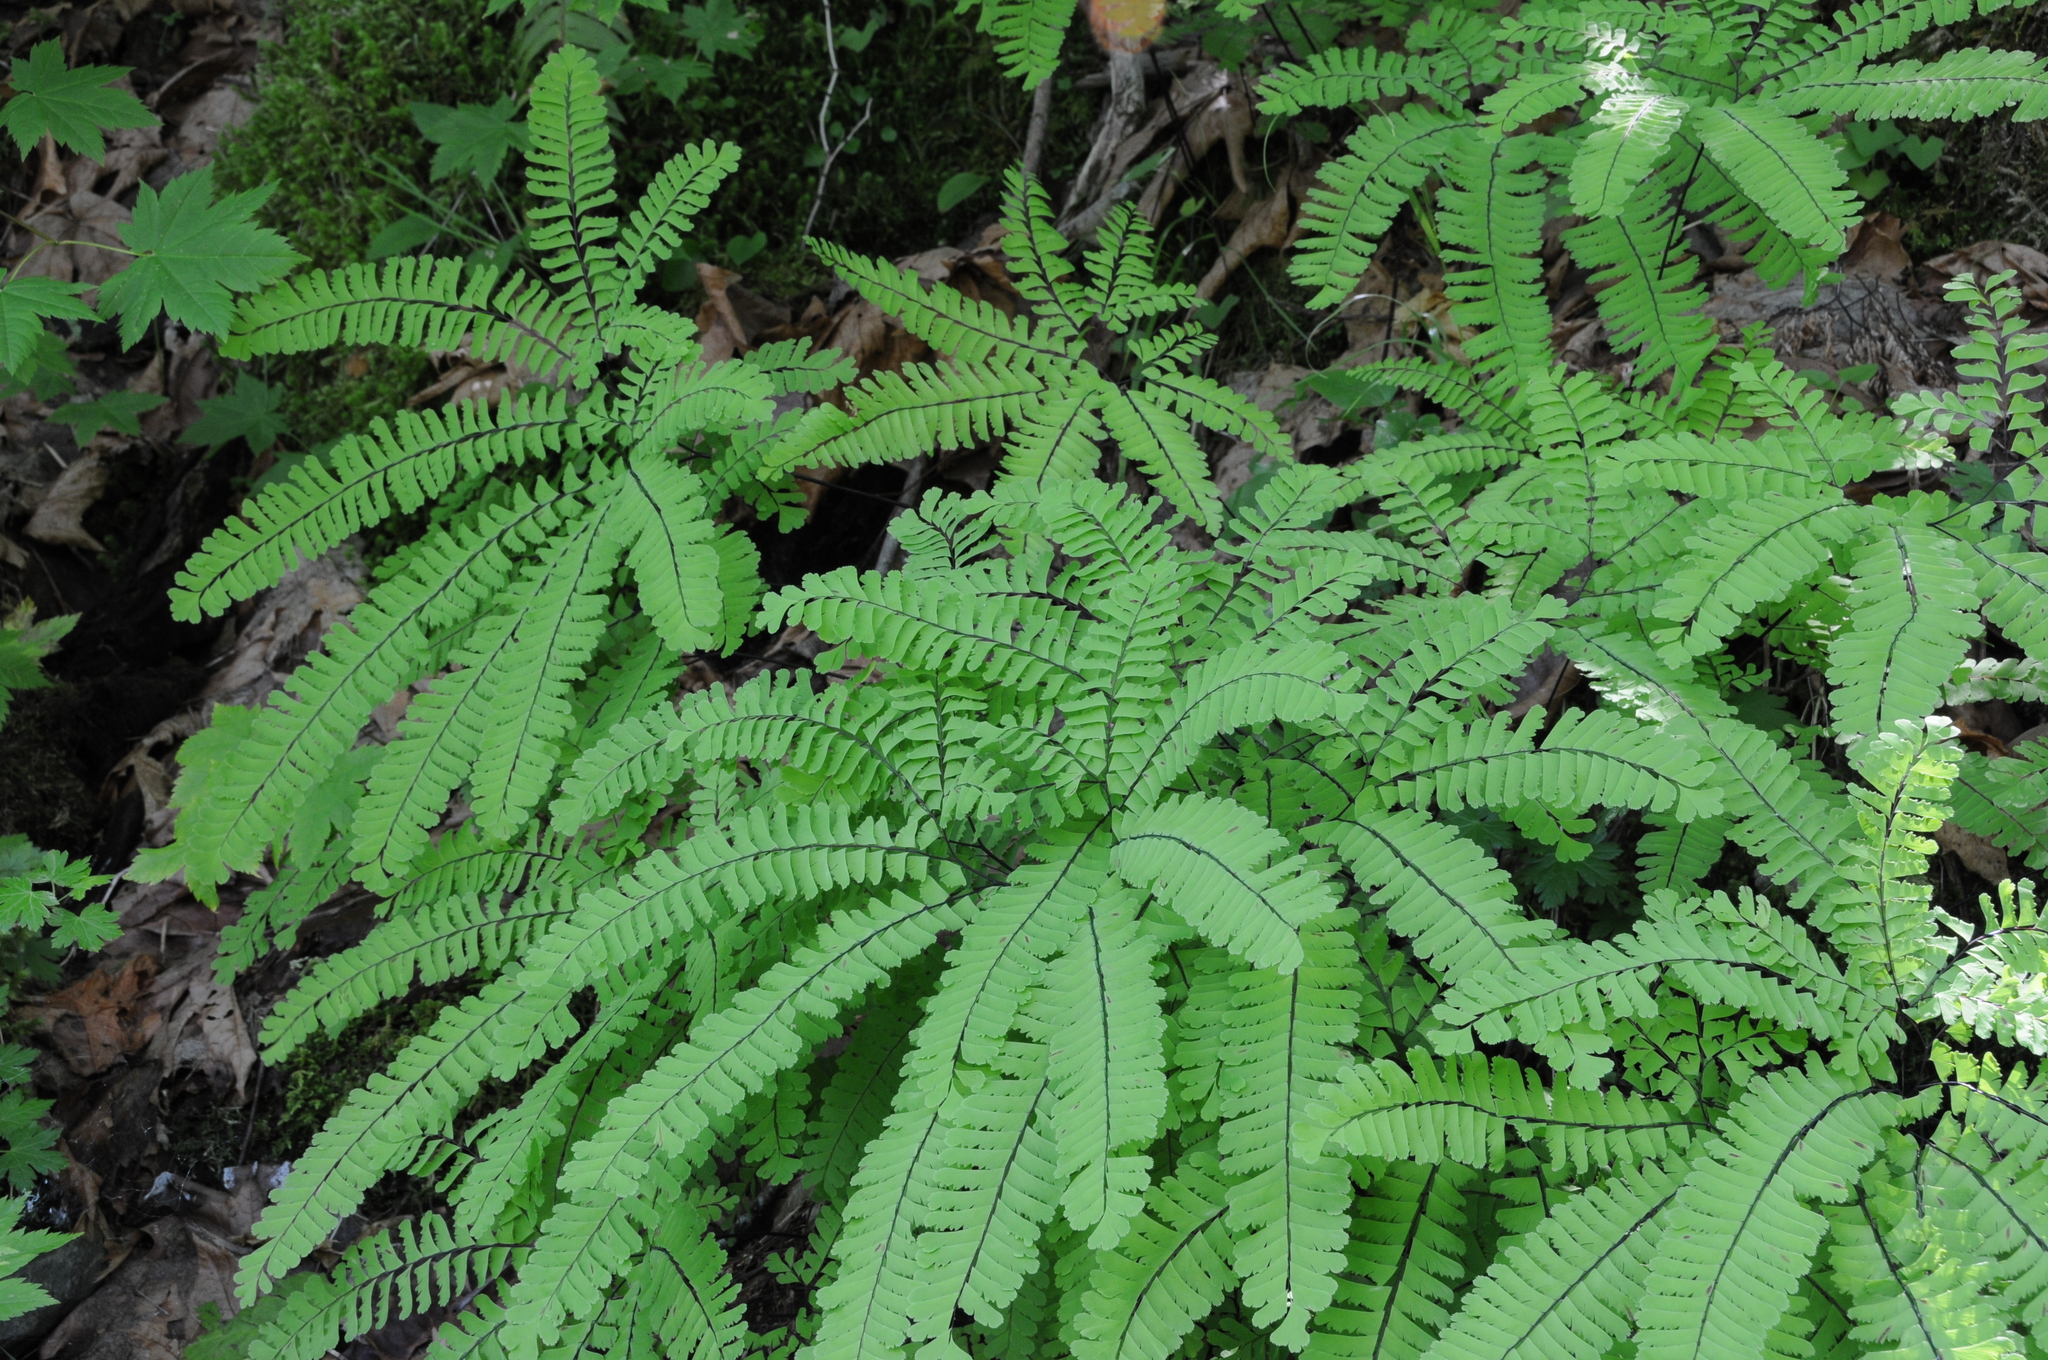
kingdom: Plantae
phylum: Tracheophyta
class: Polypodiopsida
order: Polypodiales
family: Pteridaceae
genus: Adiantum
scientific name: Adiantum aleuticum
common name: Aleutian maidenhair fern
